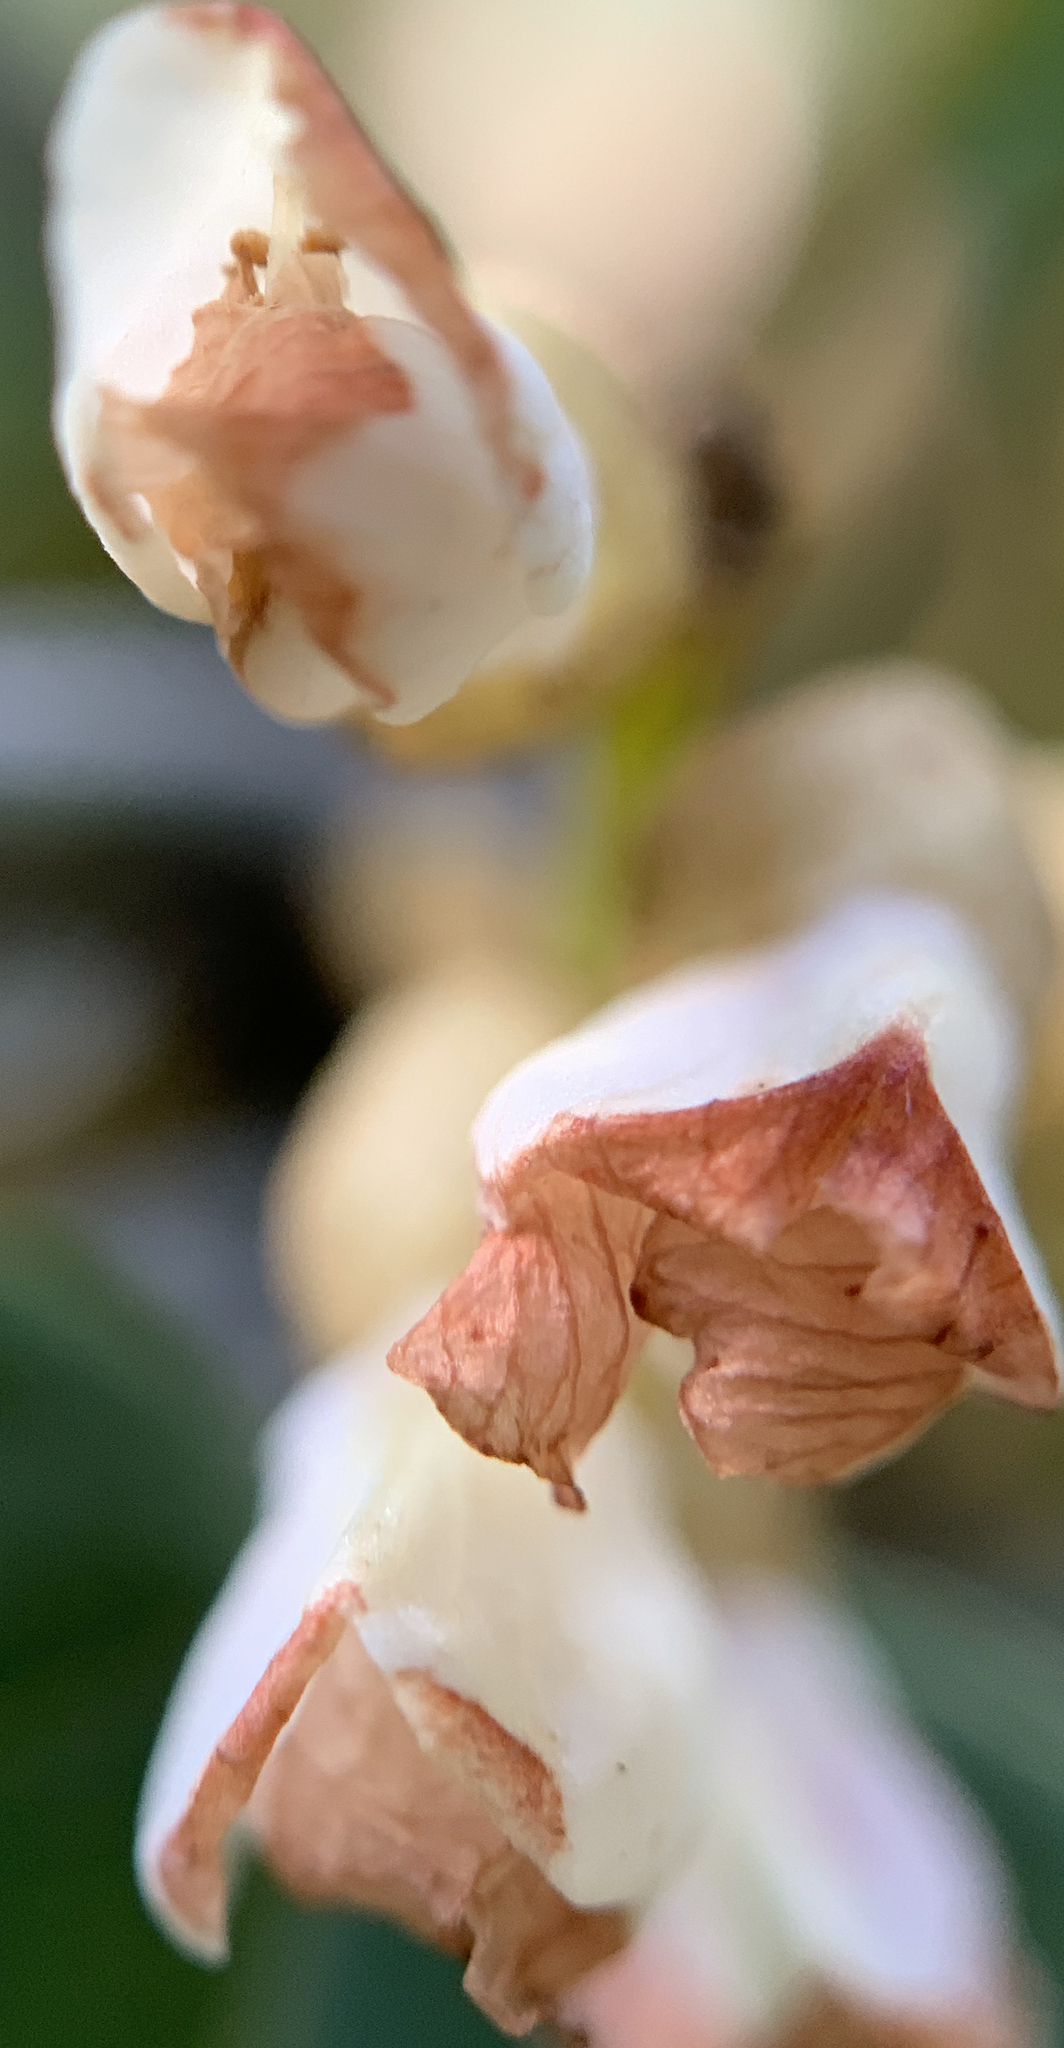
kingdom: Plantae
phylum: Tracheophyta
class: Magnoliopsida
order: Fabales
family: Fabaceae
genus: Dalbergia
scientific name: Dalbergia ecastaphyllum
